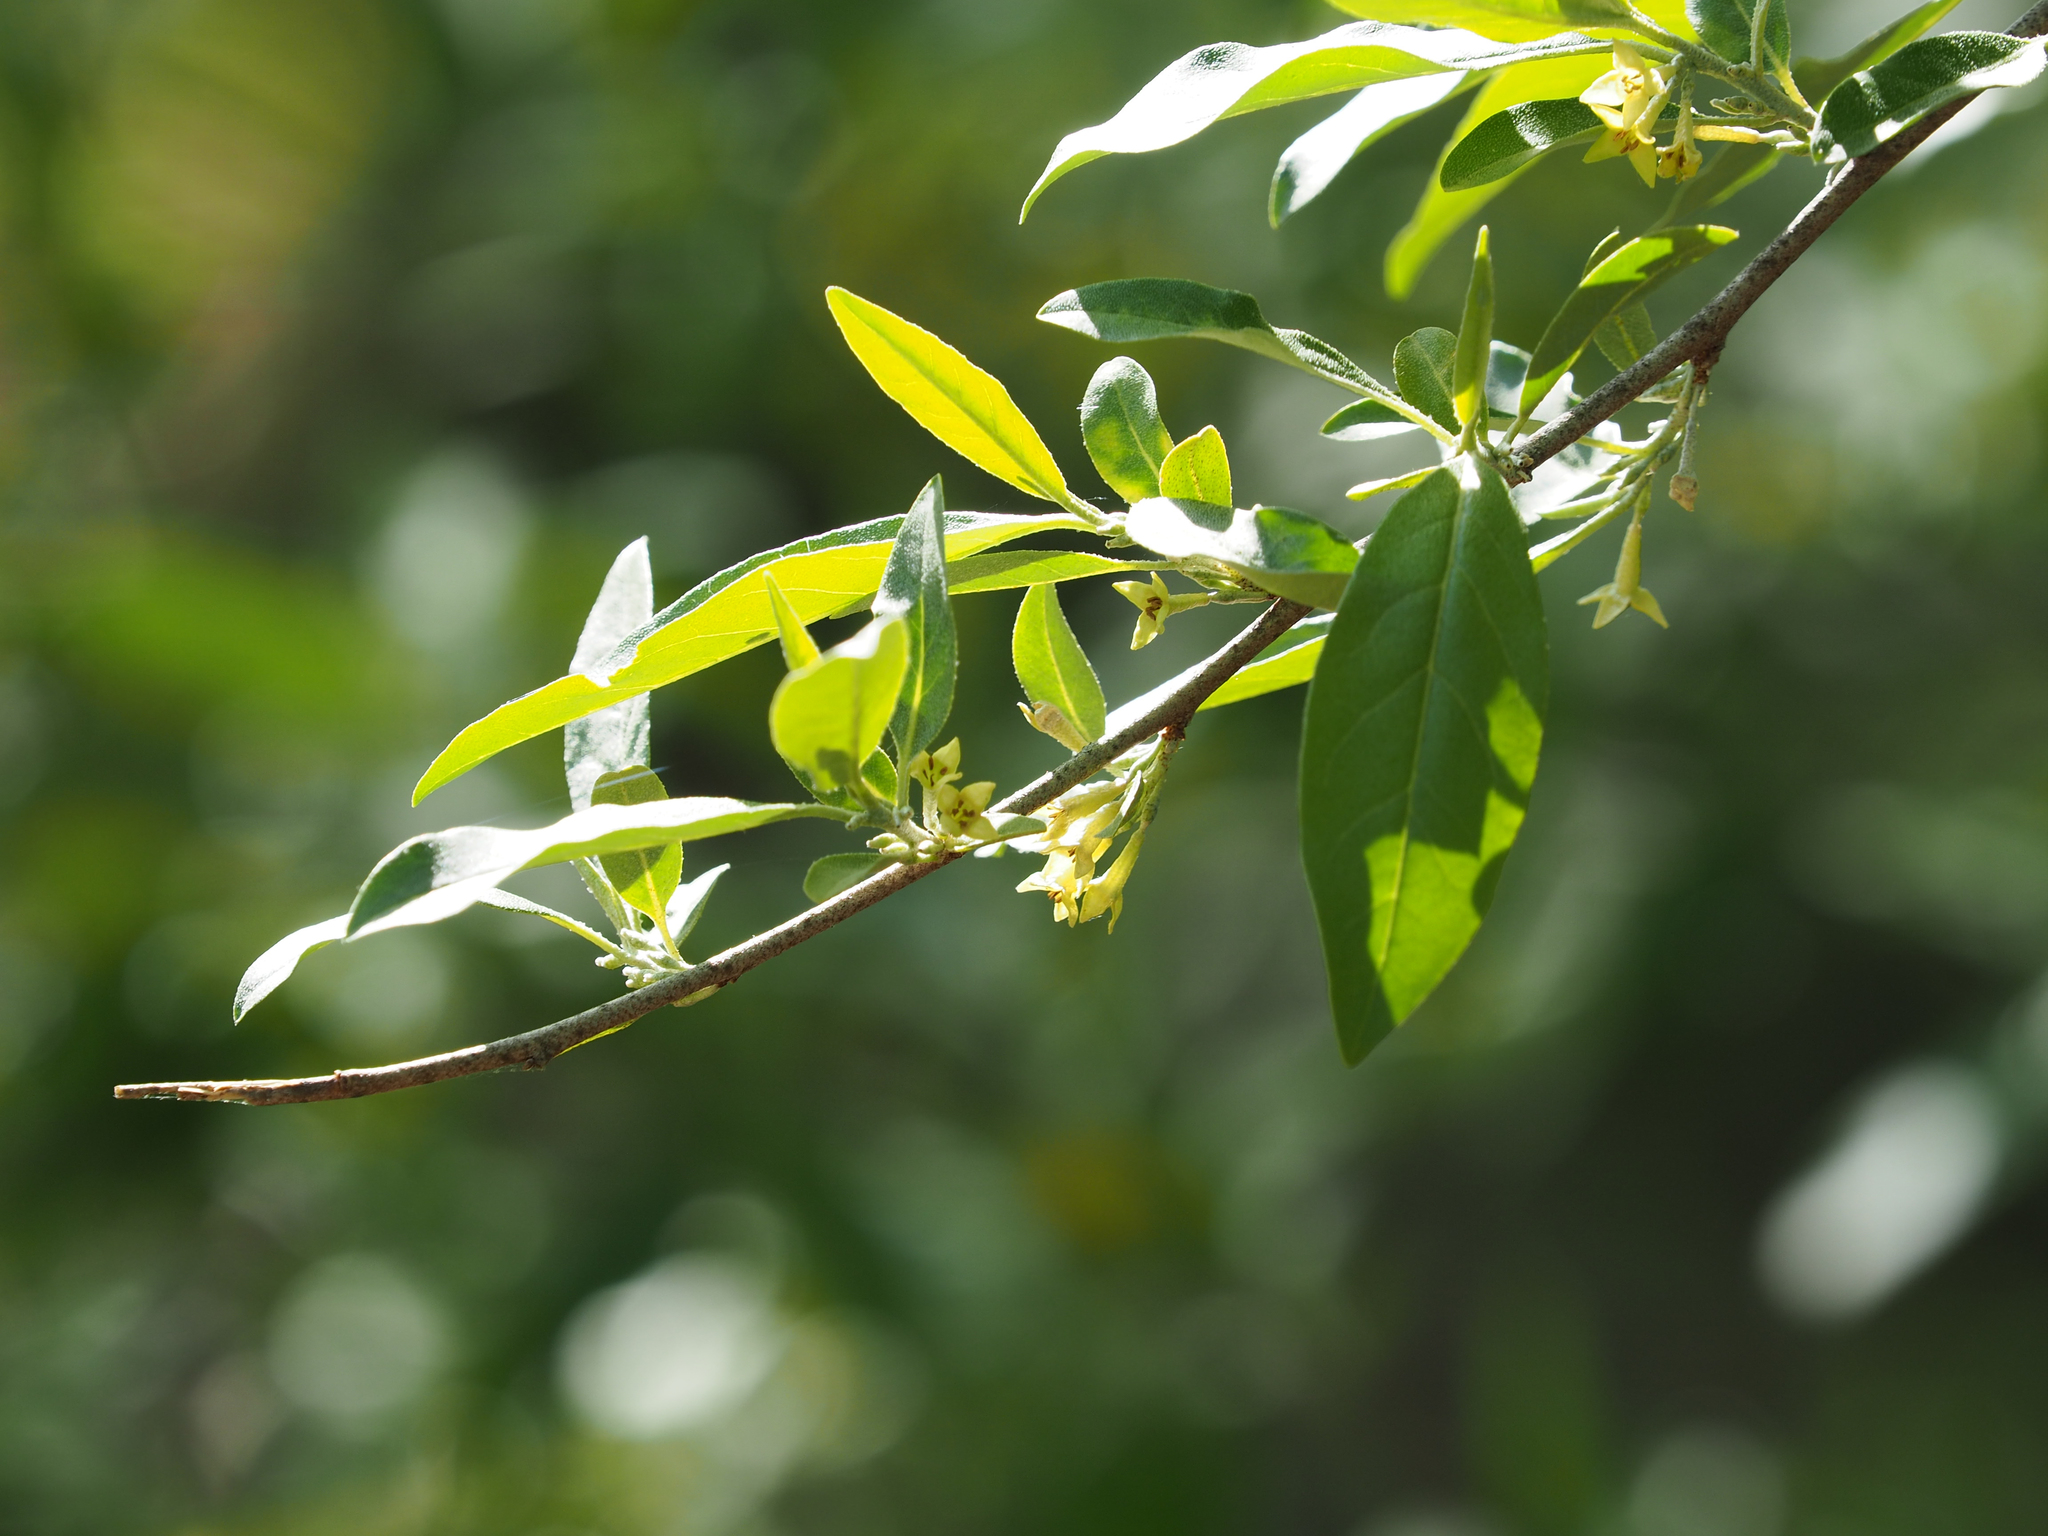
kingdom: Plantae
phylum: Tracheophyta
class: Magnoliopsida
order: Rosales
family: Elaeagnaceae
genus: Elaeagnus
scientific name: Elaeagnus umbellata
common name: Autumn olive
